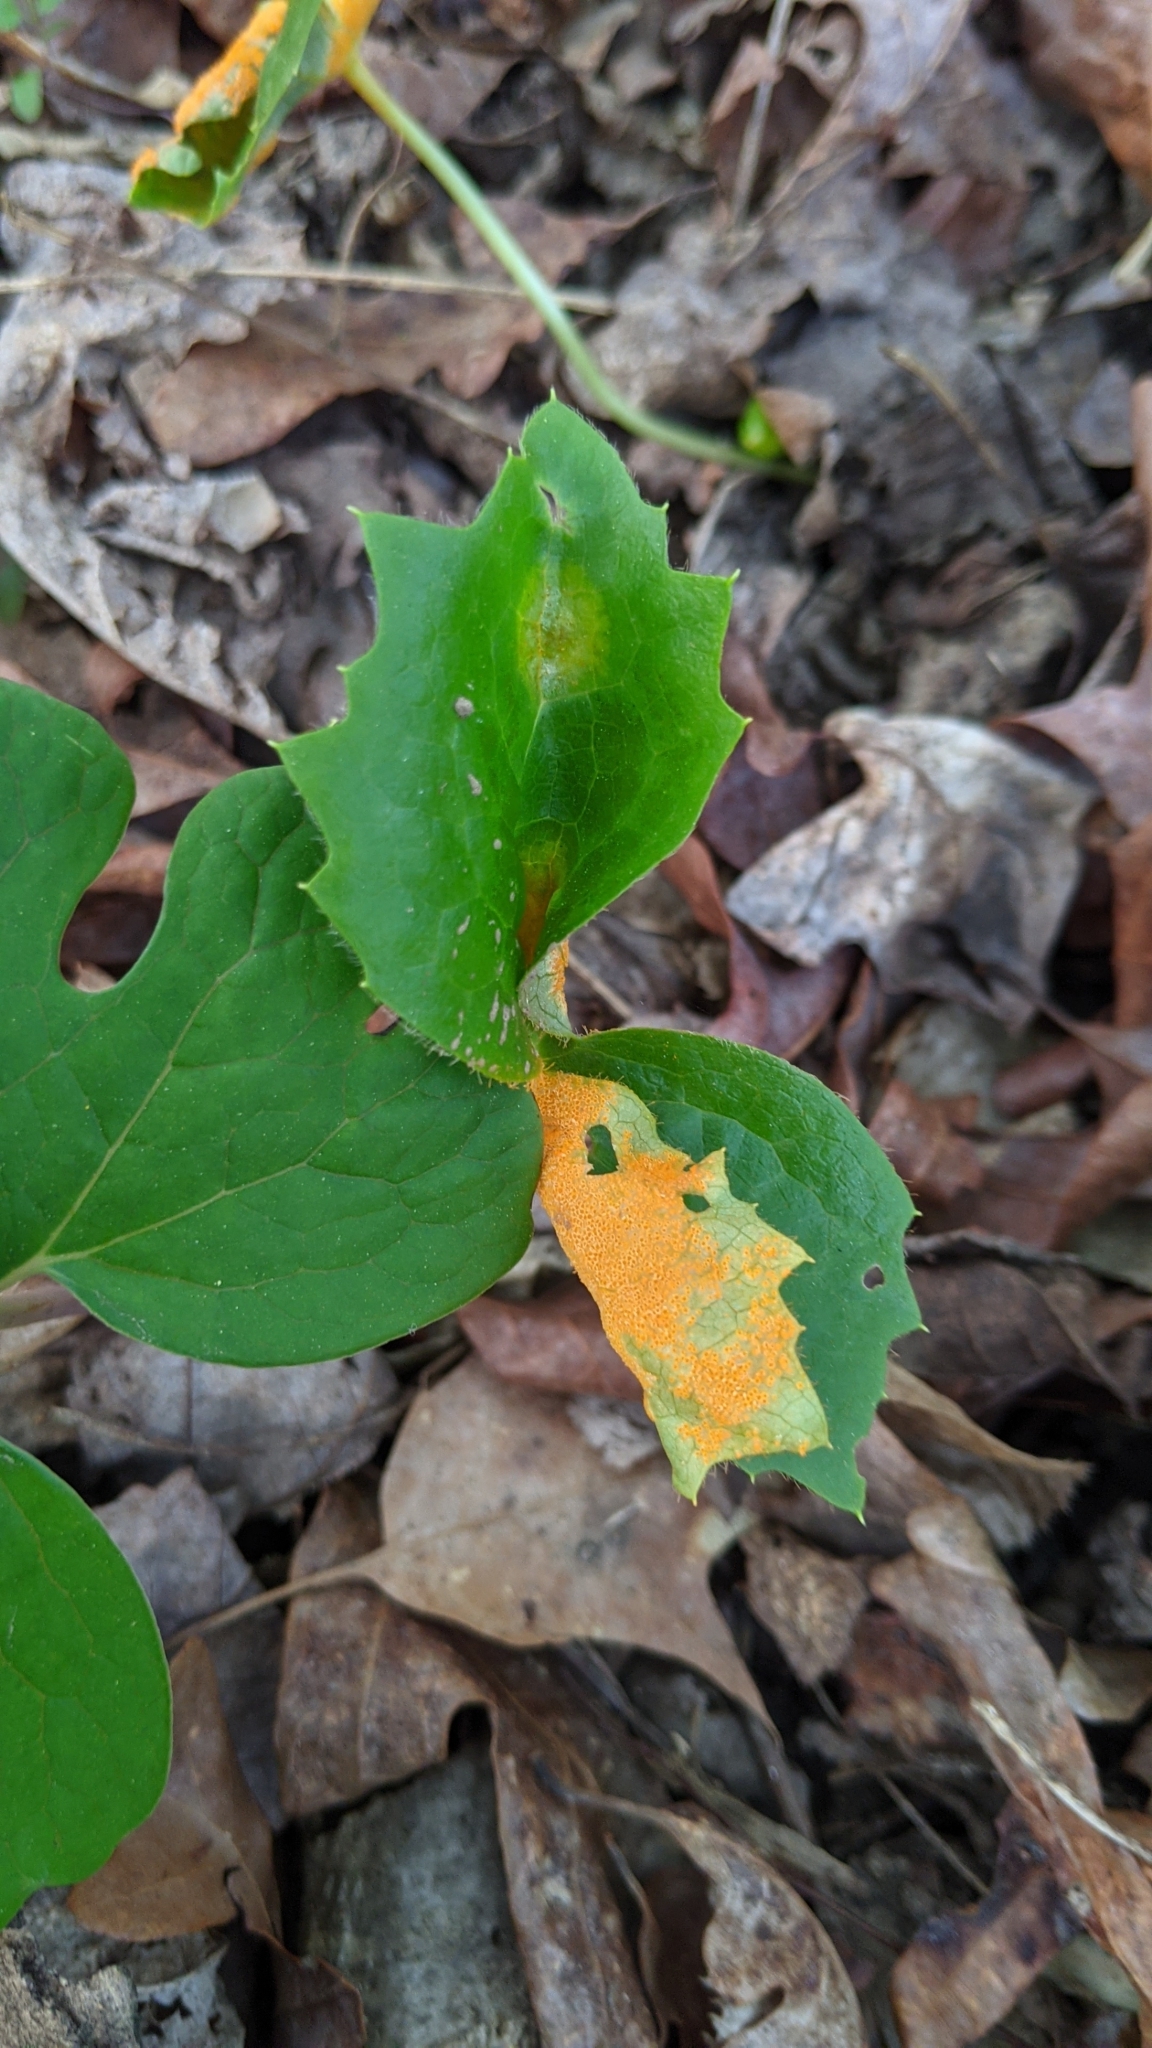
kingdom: Fungi
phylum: Basidiomycota
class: Pucciniomycetes
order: Pucciniales
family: Pucciniaceae
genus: Puccinia
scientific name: Puccinia podophylli
